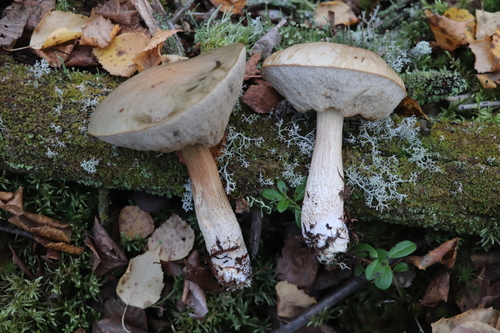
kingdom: Fungi
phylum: Basidiomycota
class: Agaricomycetes
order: Boletales
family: Boletaceae
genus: Leccinum
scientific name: Leccinum scabrum
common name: Blushing bolete
